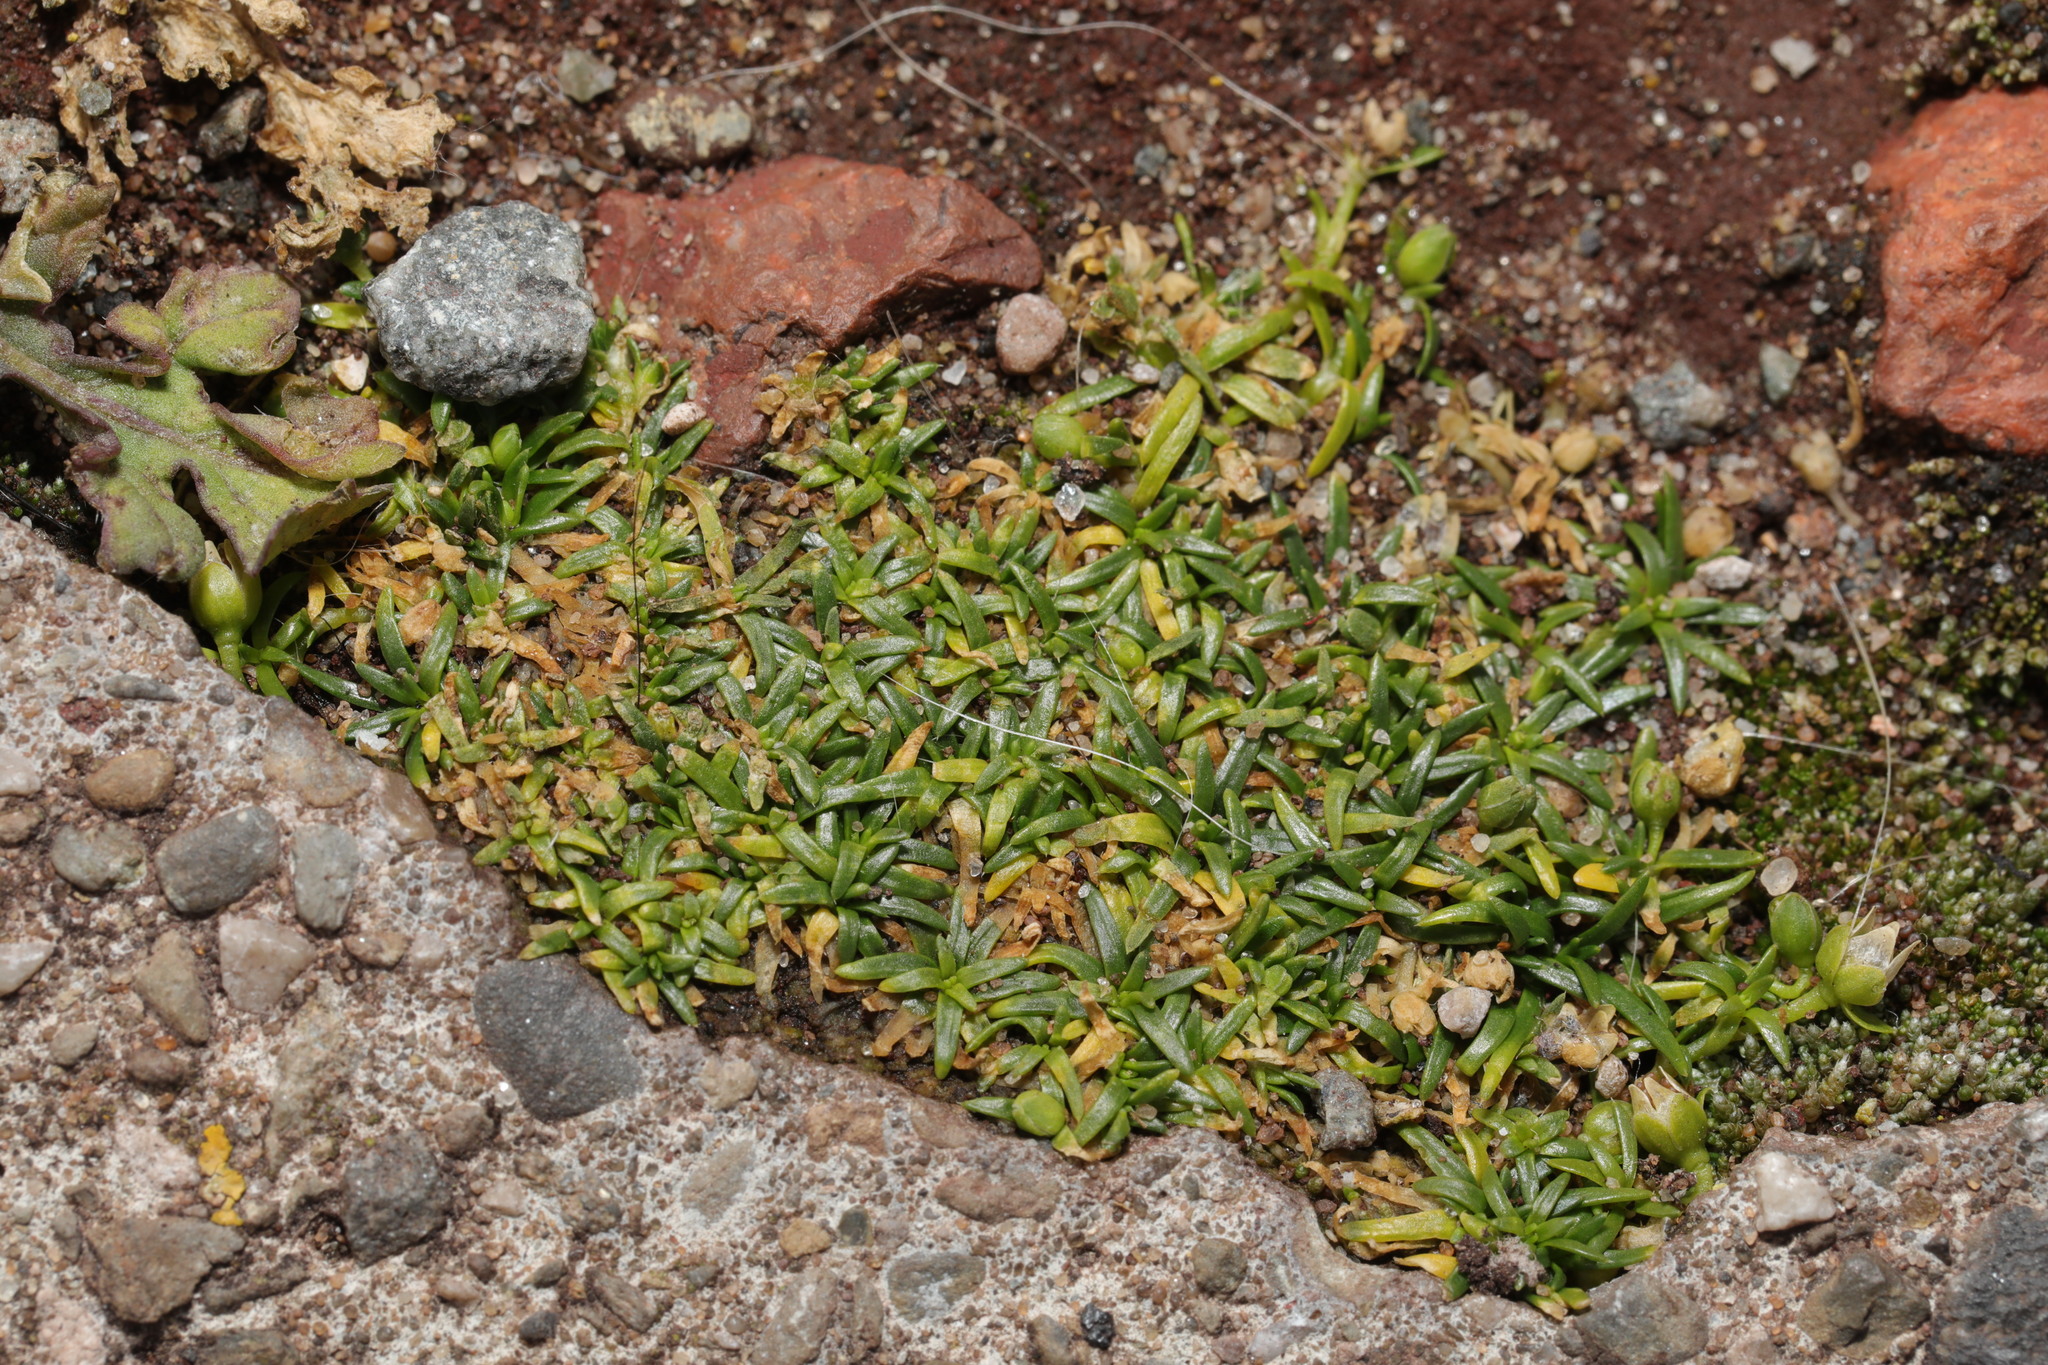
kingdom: Plantae
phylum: Tracheophyta
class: Magnoliopsida
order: Caryophyllales
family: Caryophyllaceae
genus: Sagina
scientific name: Sagina procumbens
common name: Procumbent pearlwort
